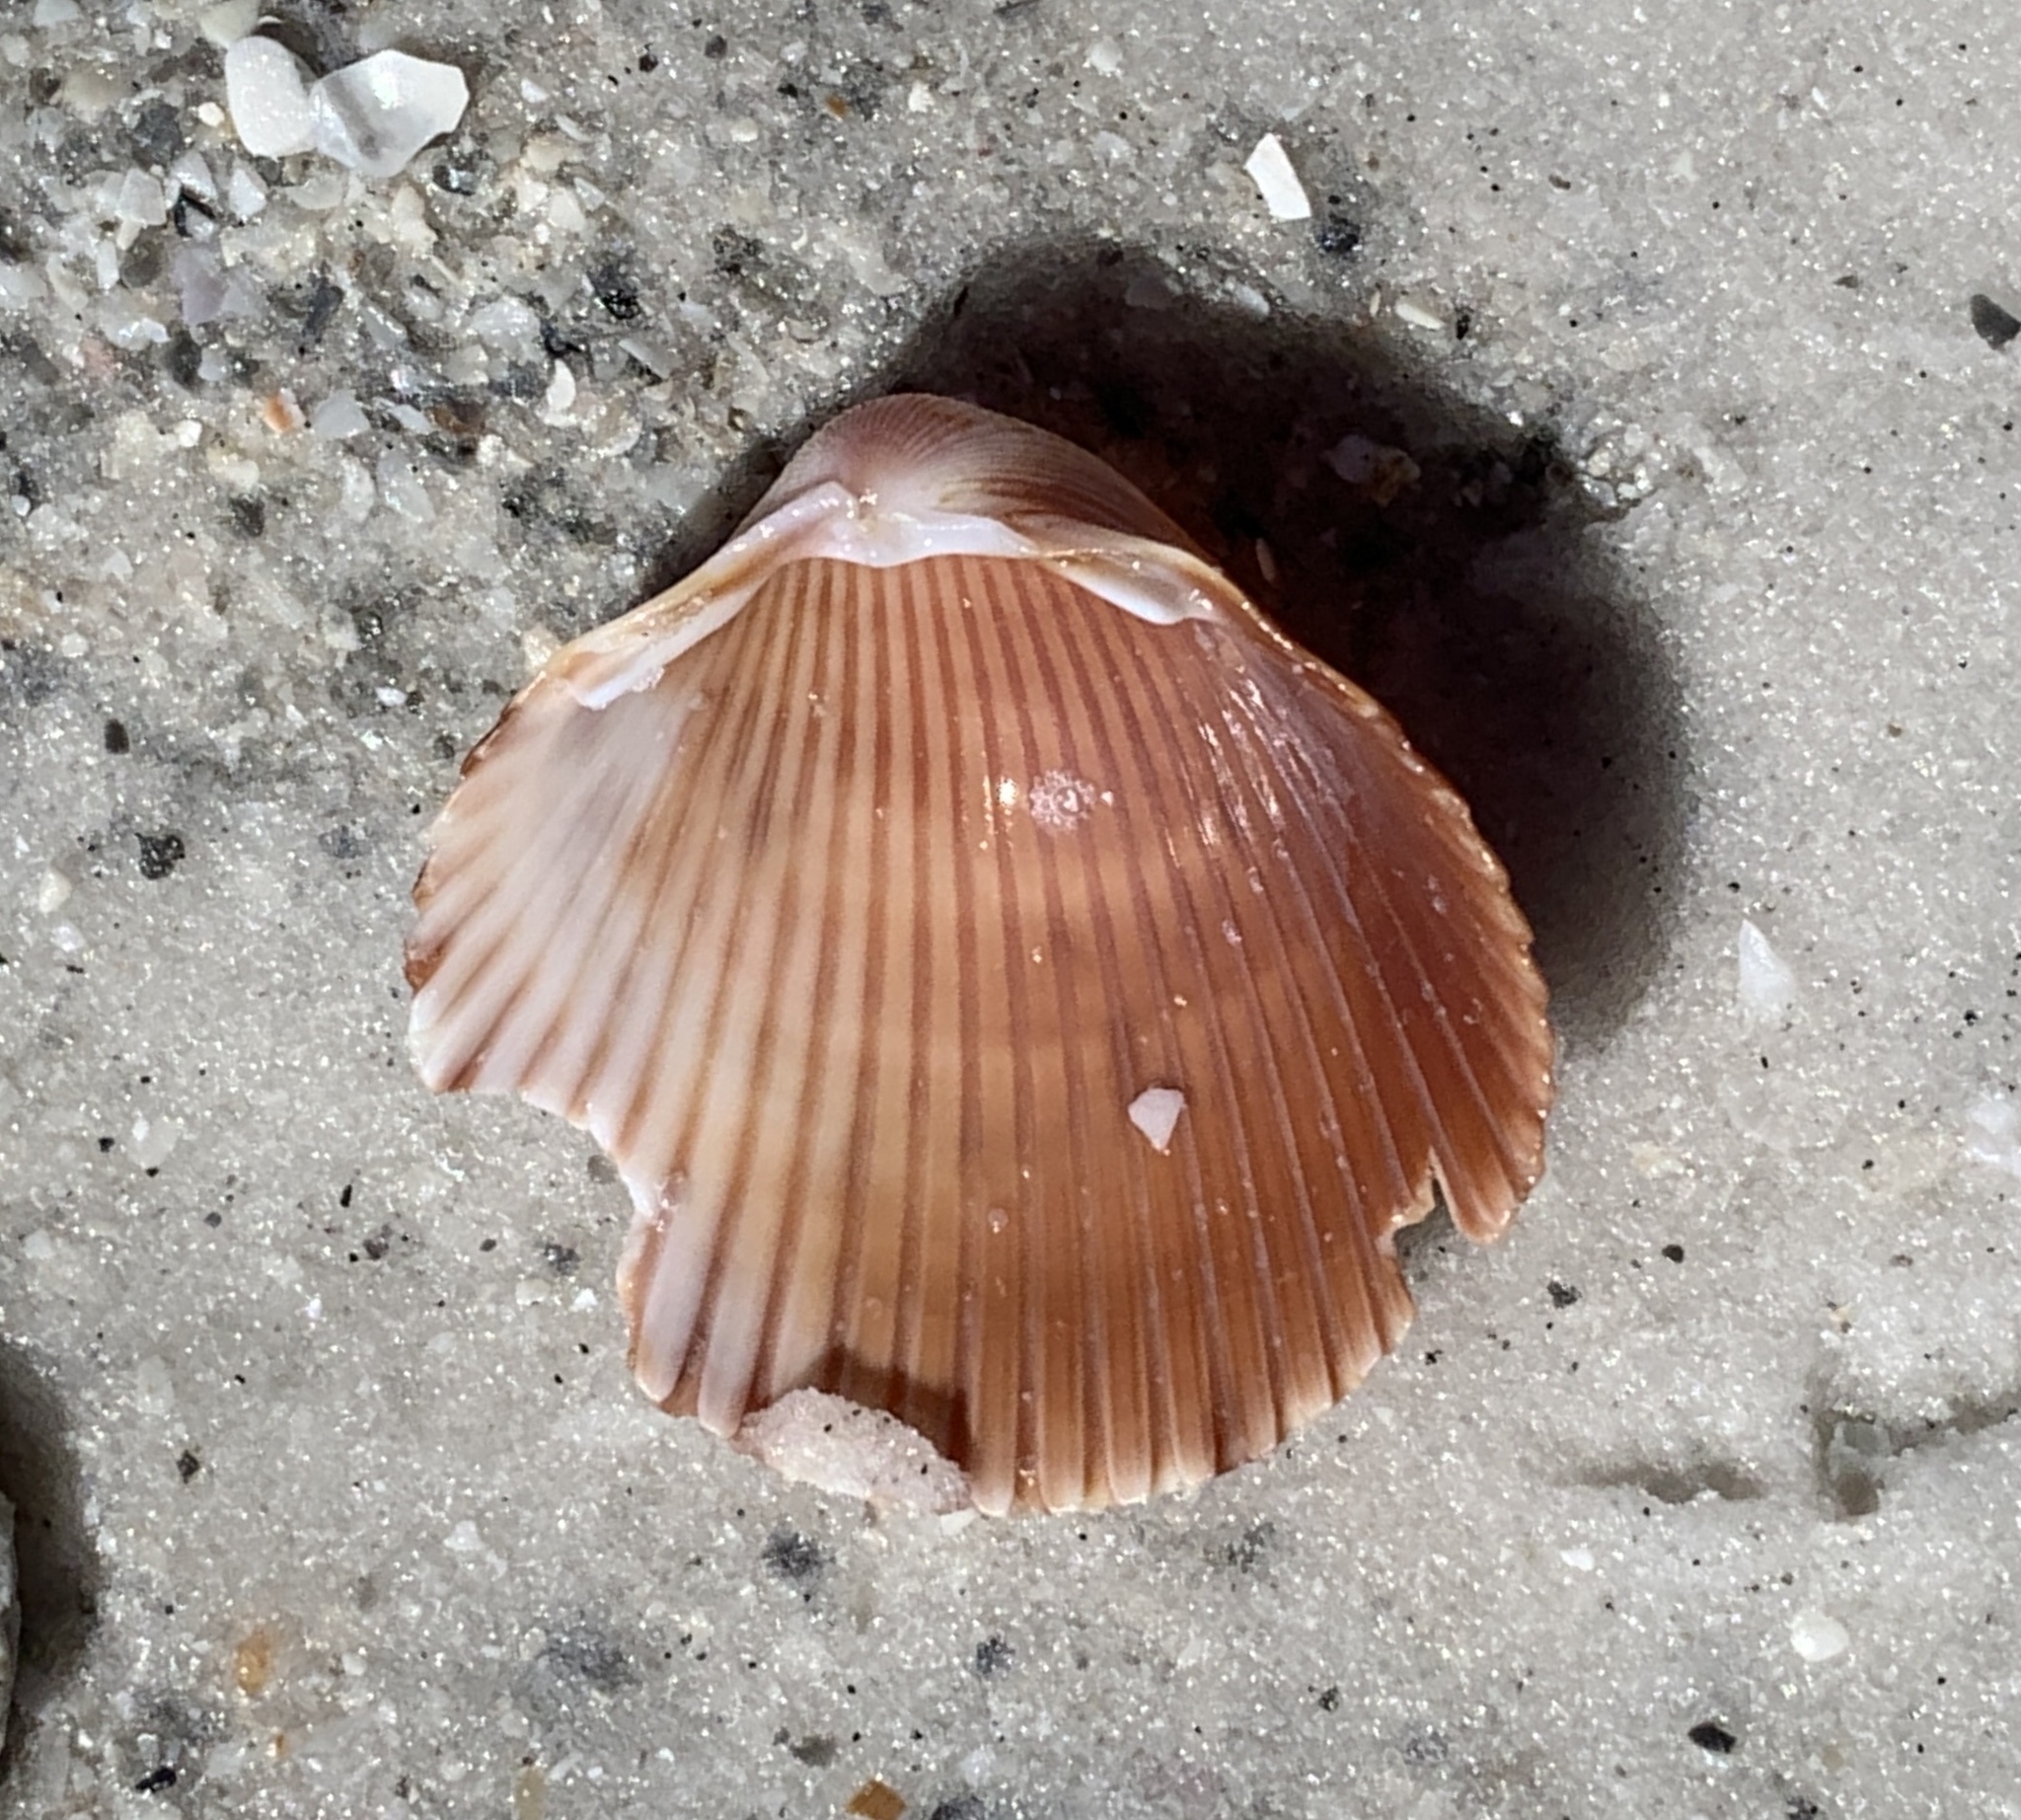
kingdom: Animalia
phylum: Mollusca
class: Bivalvia
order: Cardiida
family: Cardiidae
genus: Dinocardium
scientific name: Dinocardium robustum
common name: Atlantic giant cockle
